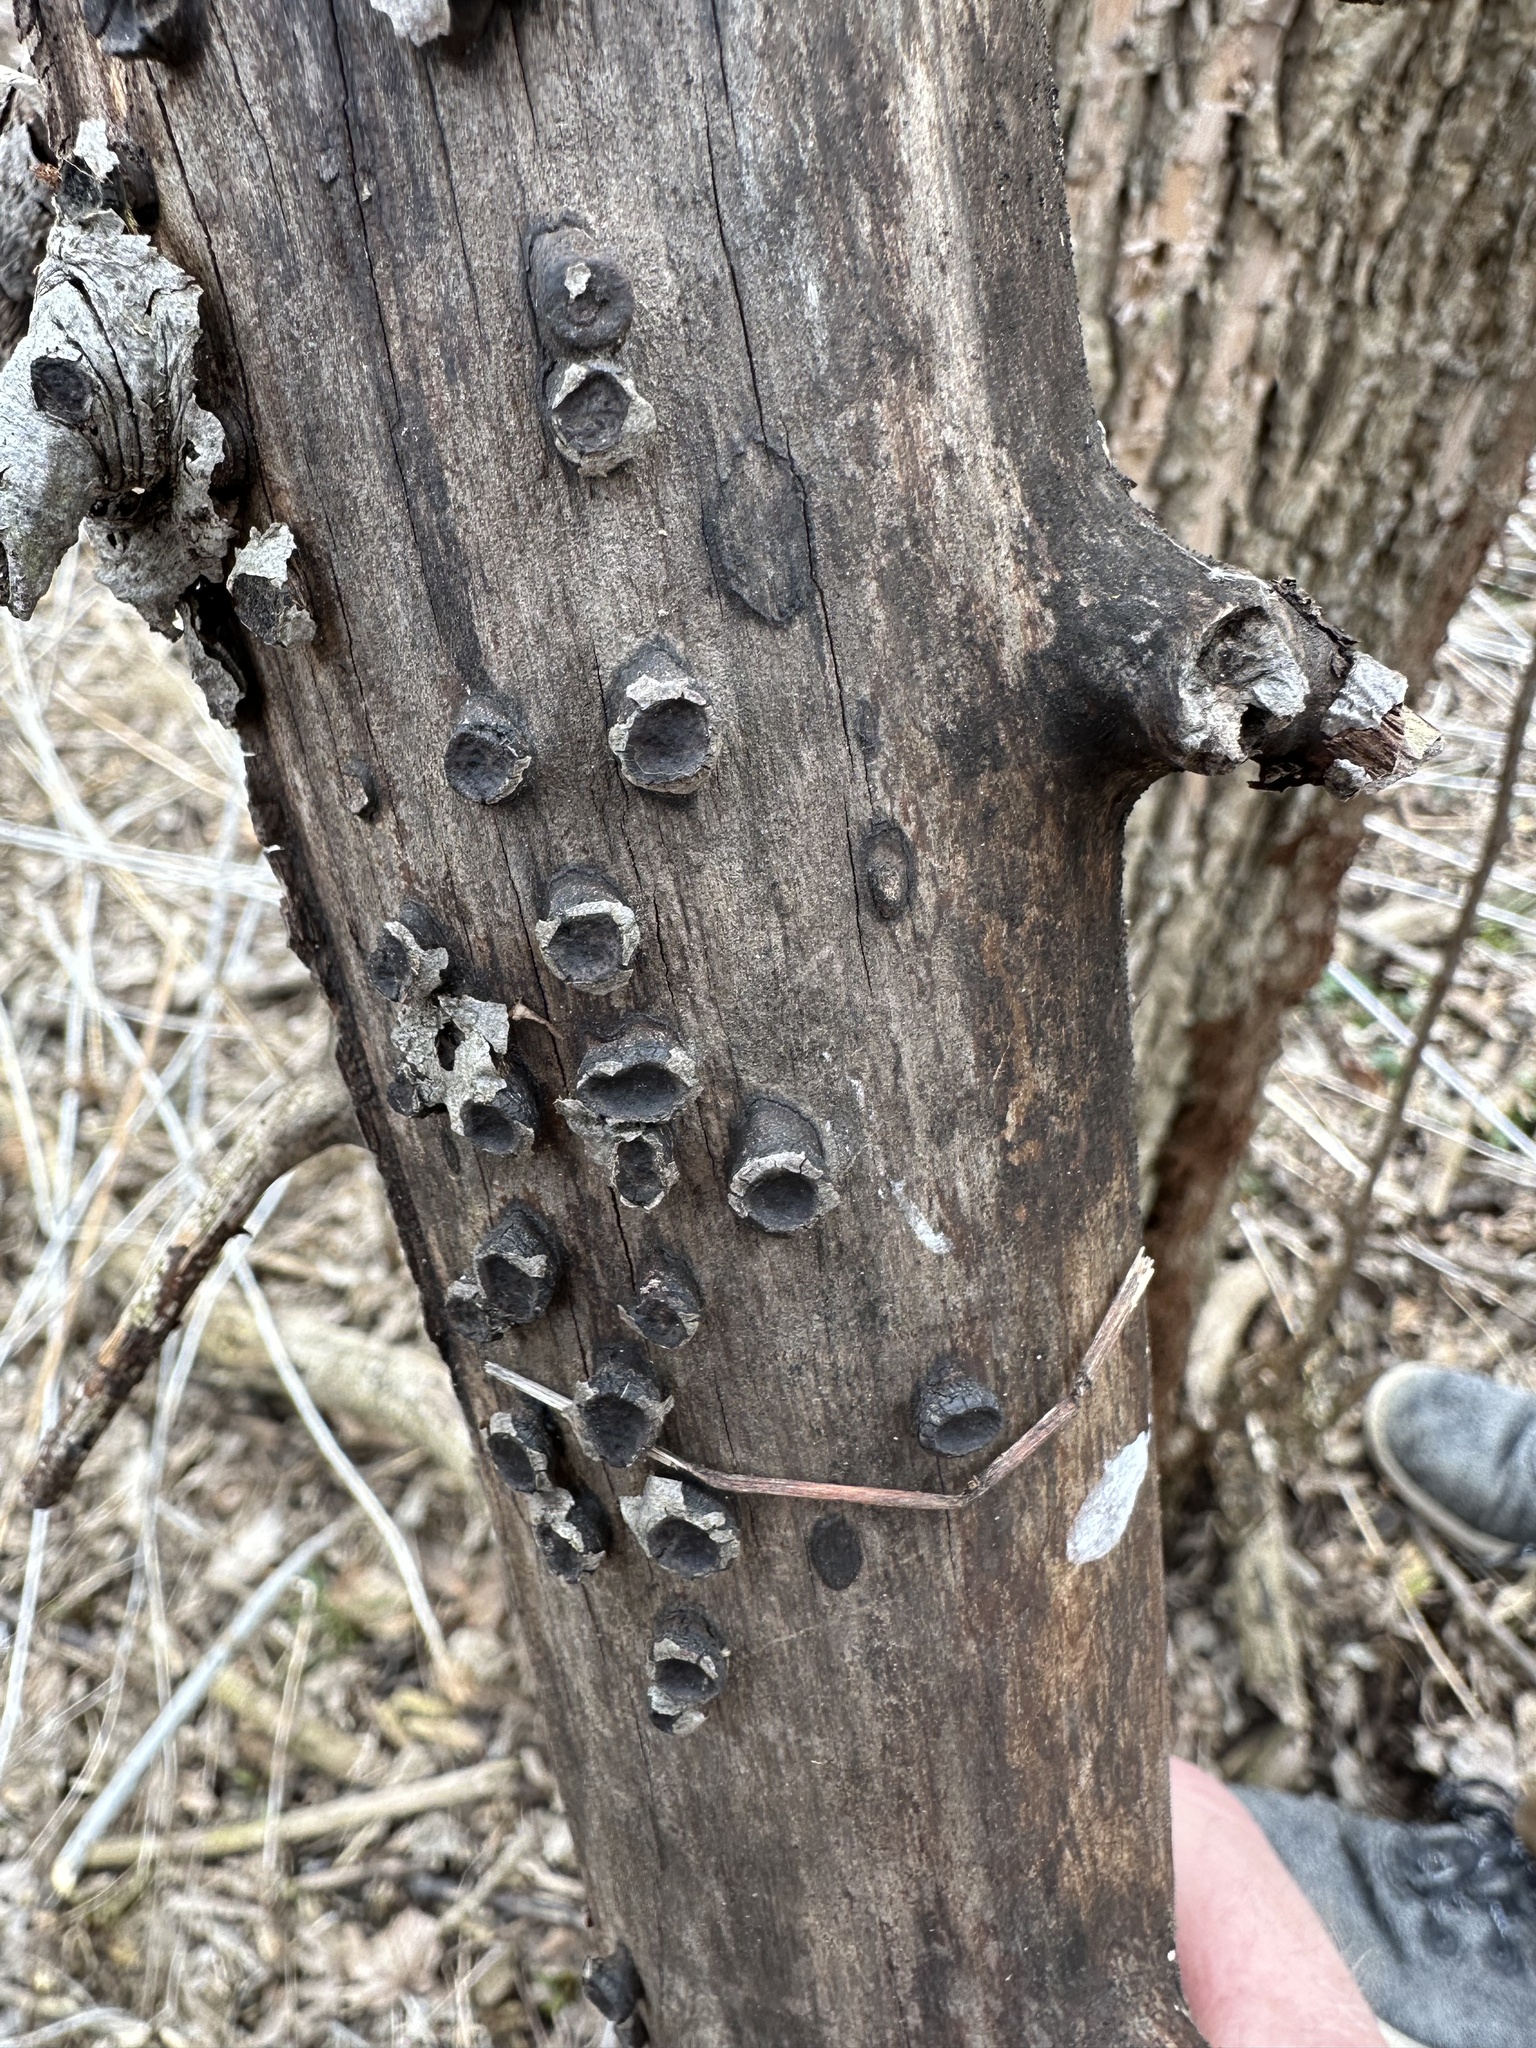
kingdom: Fungi
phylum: Ascomycota
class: Sordariomycetes
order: Xylariales
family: Graphostromataceae
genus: Biscogniauxia
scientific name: Biscogniauxia marginata
